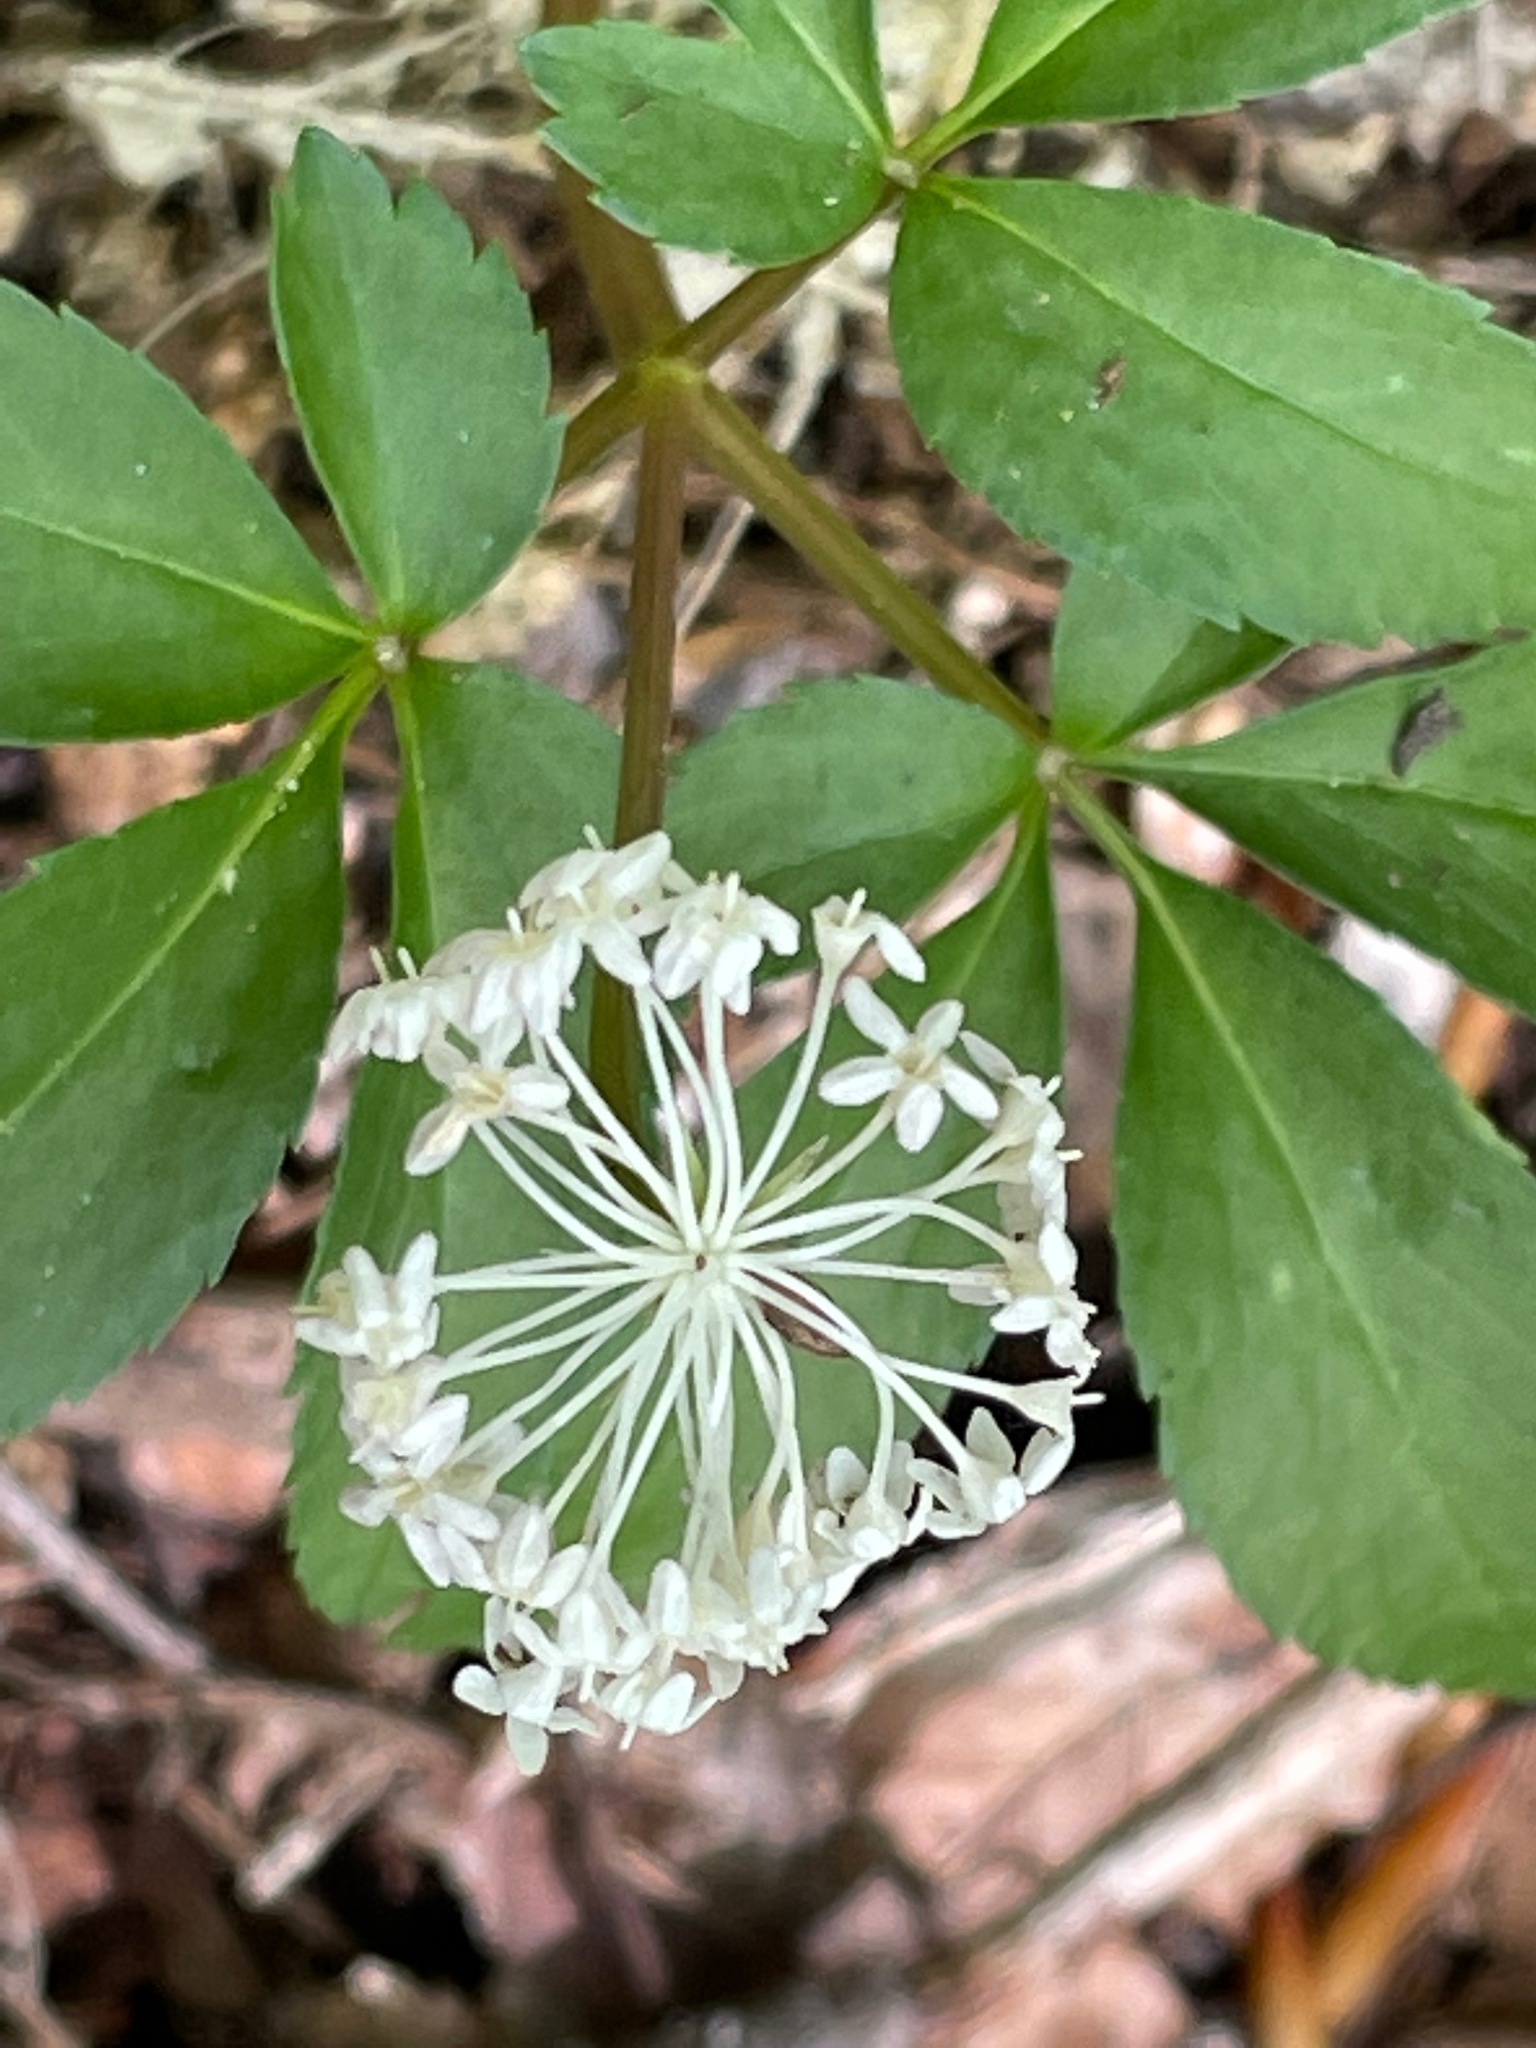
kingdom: Plantae
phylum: Tracheophyta
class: Magnoliopsida
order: Apiales
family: Araliaceae
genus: Panax
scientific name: Panax trifolius
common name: Dwarf ginseng
